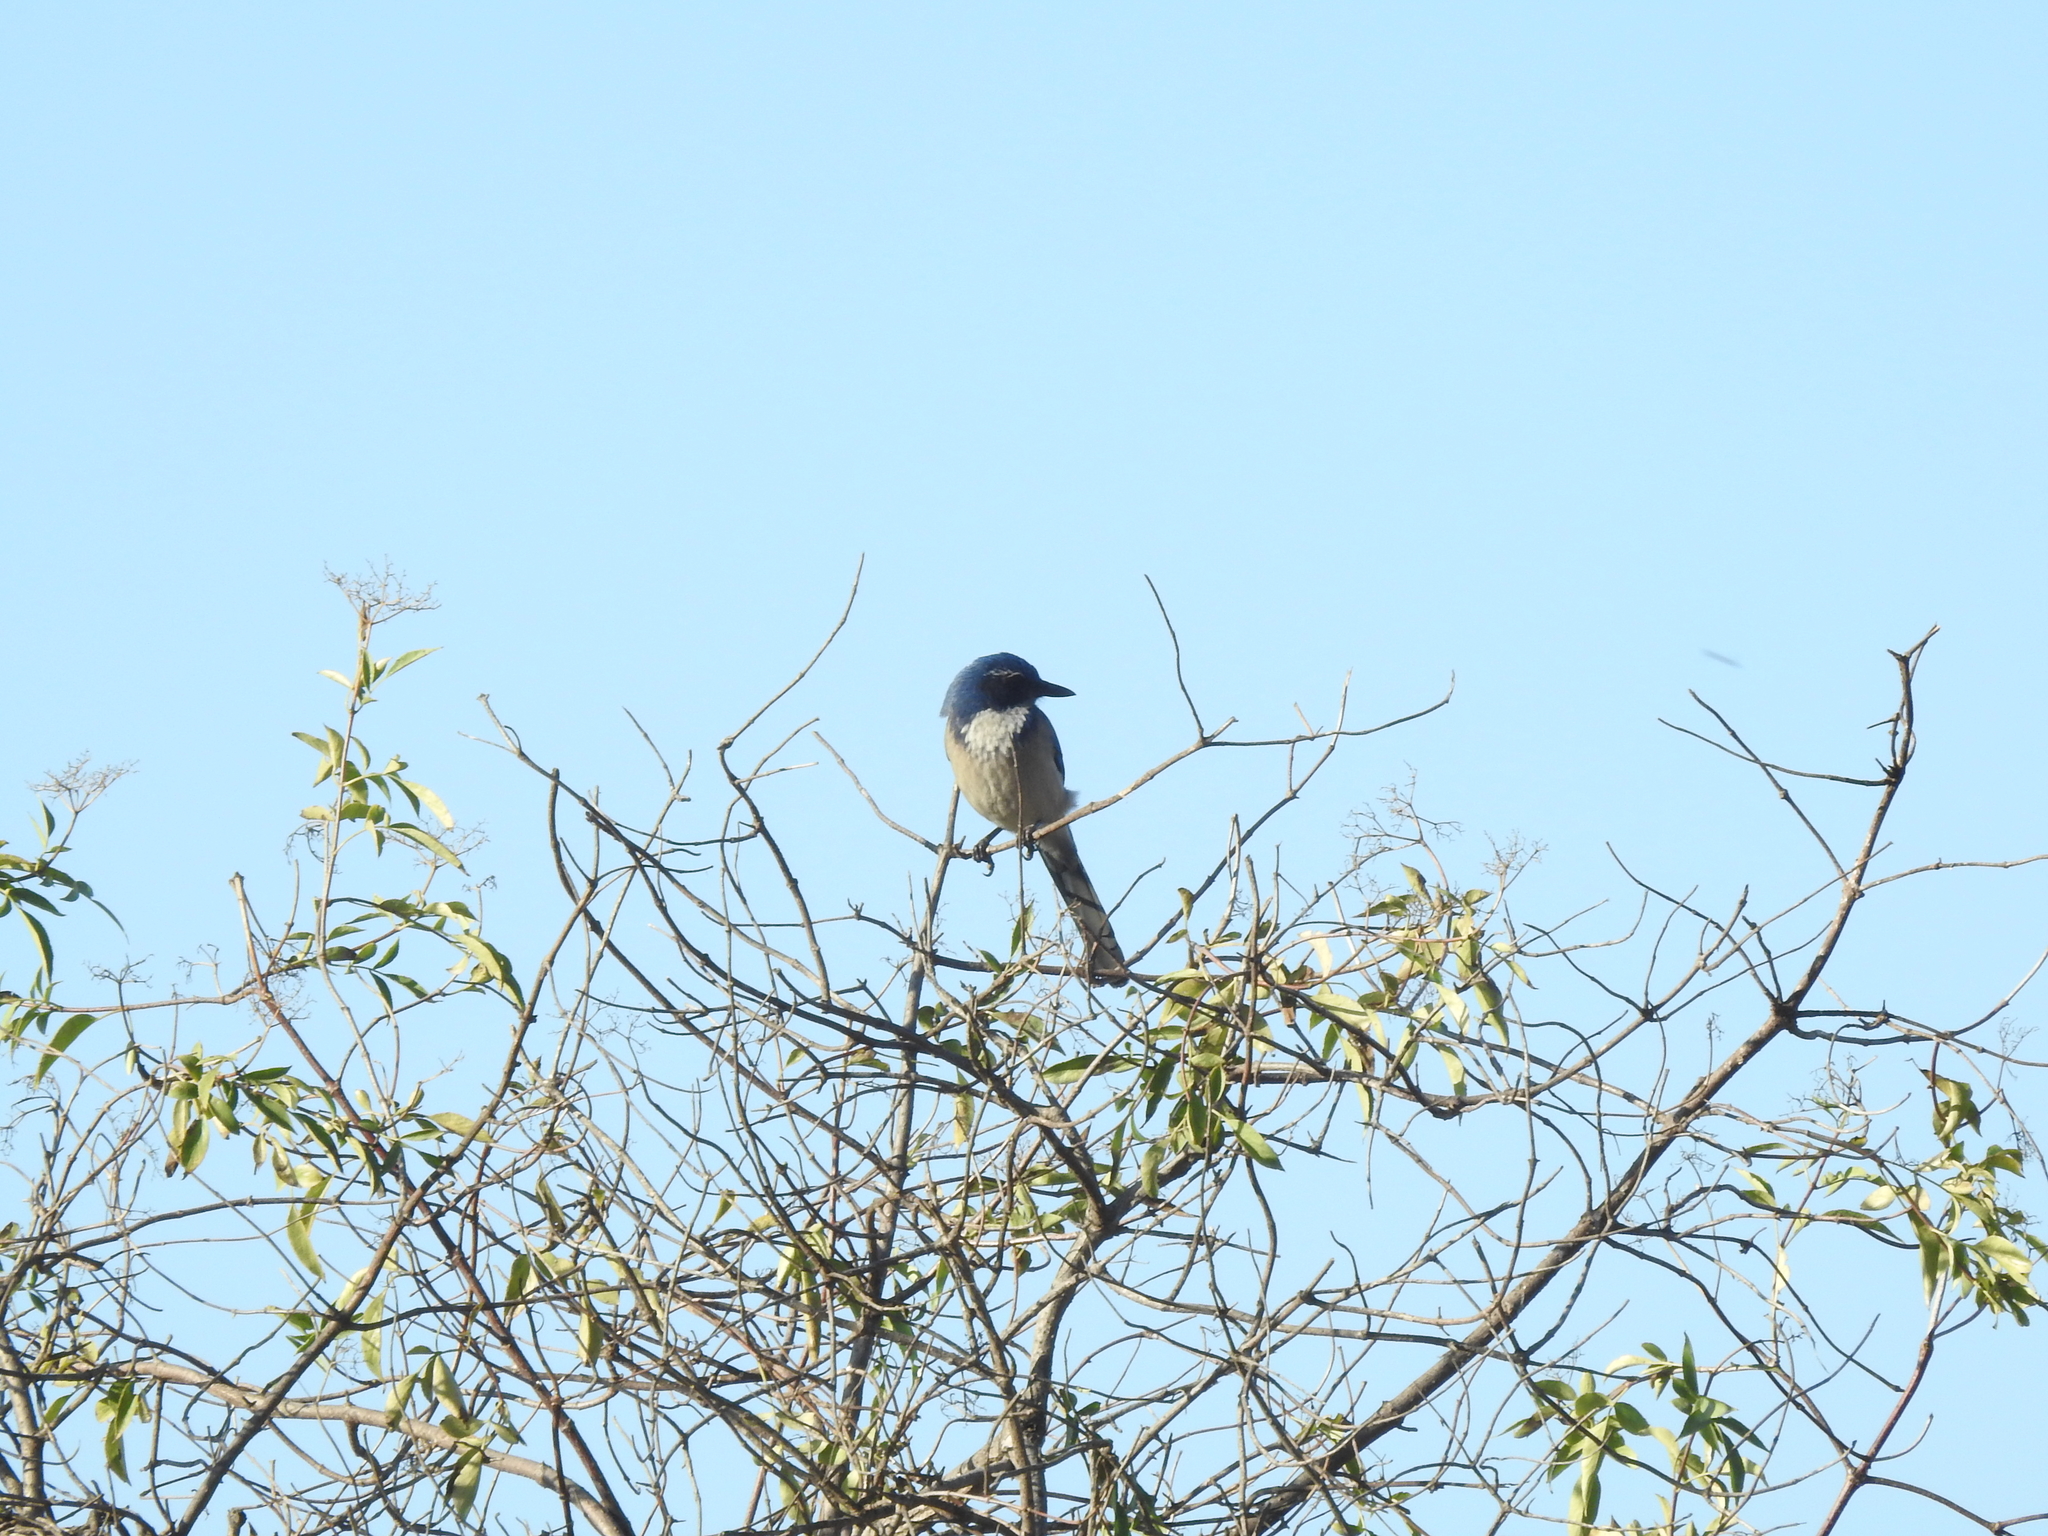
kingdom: Animalia
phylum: Chordata
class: Aves
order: Passeriformes
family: Corvidae
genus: Aphelocoma
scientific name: Aphelocoma californica
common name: California scrub-jay
